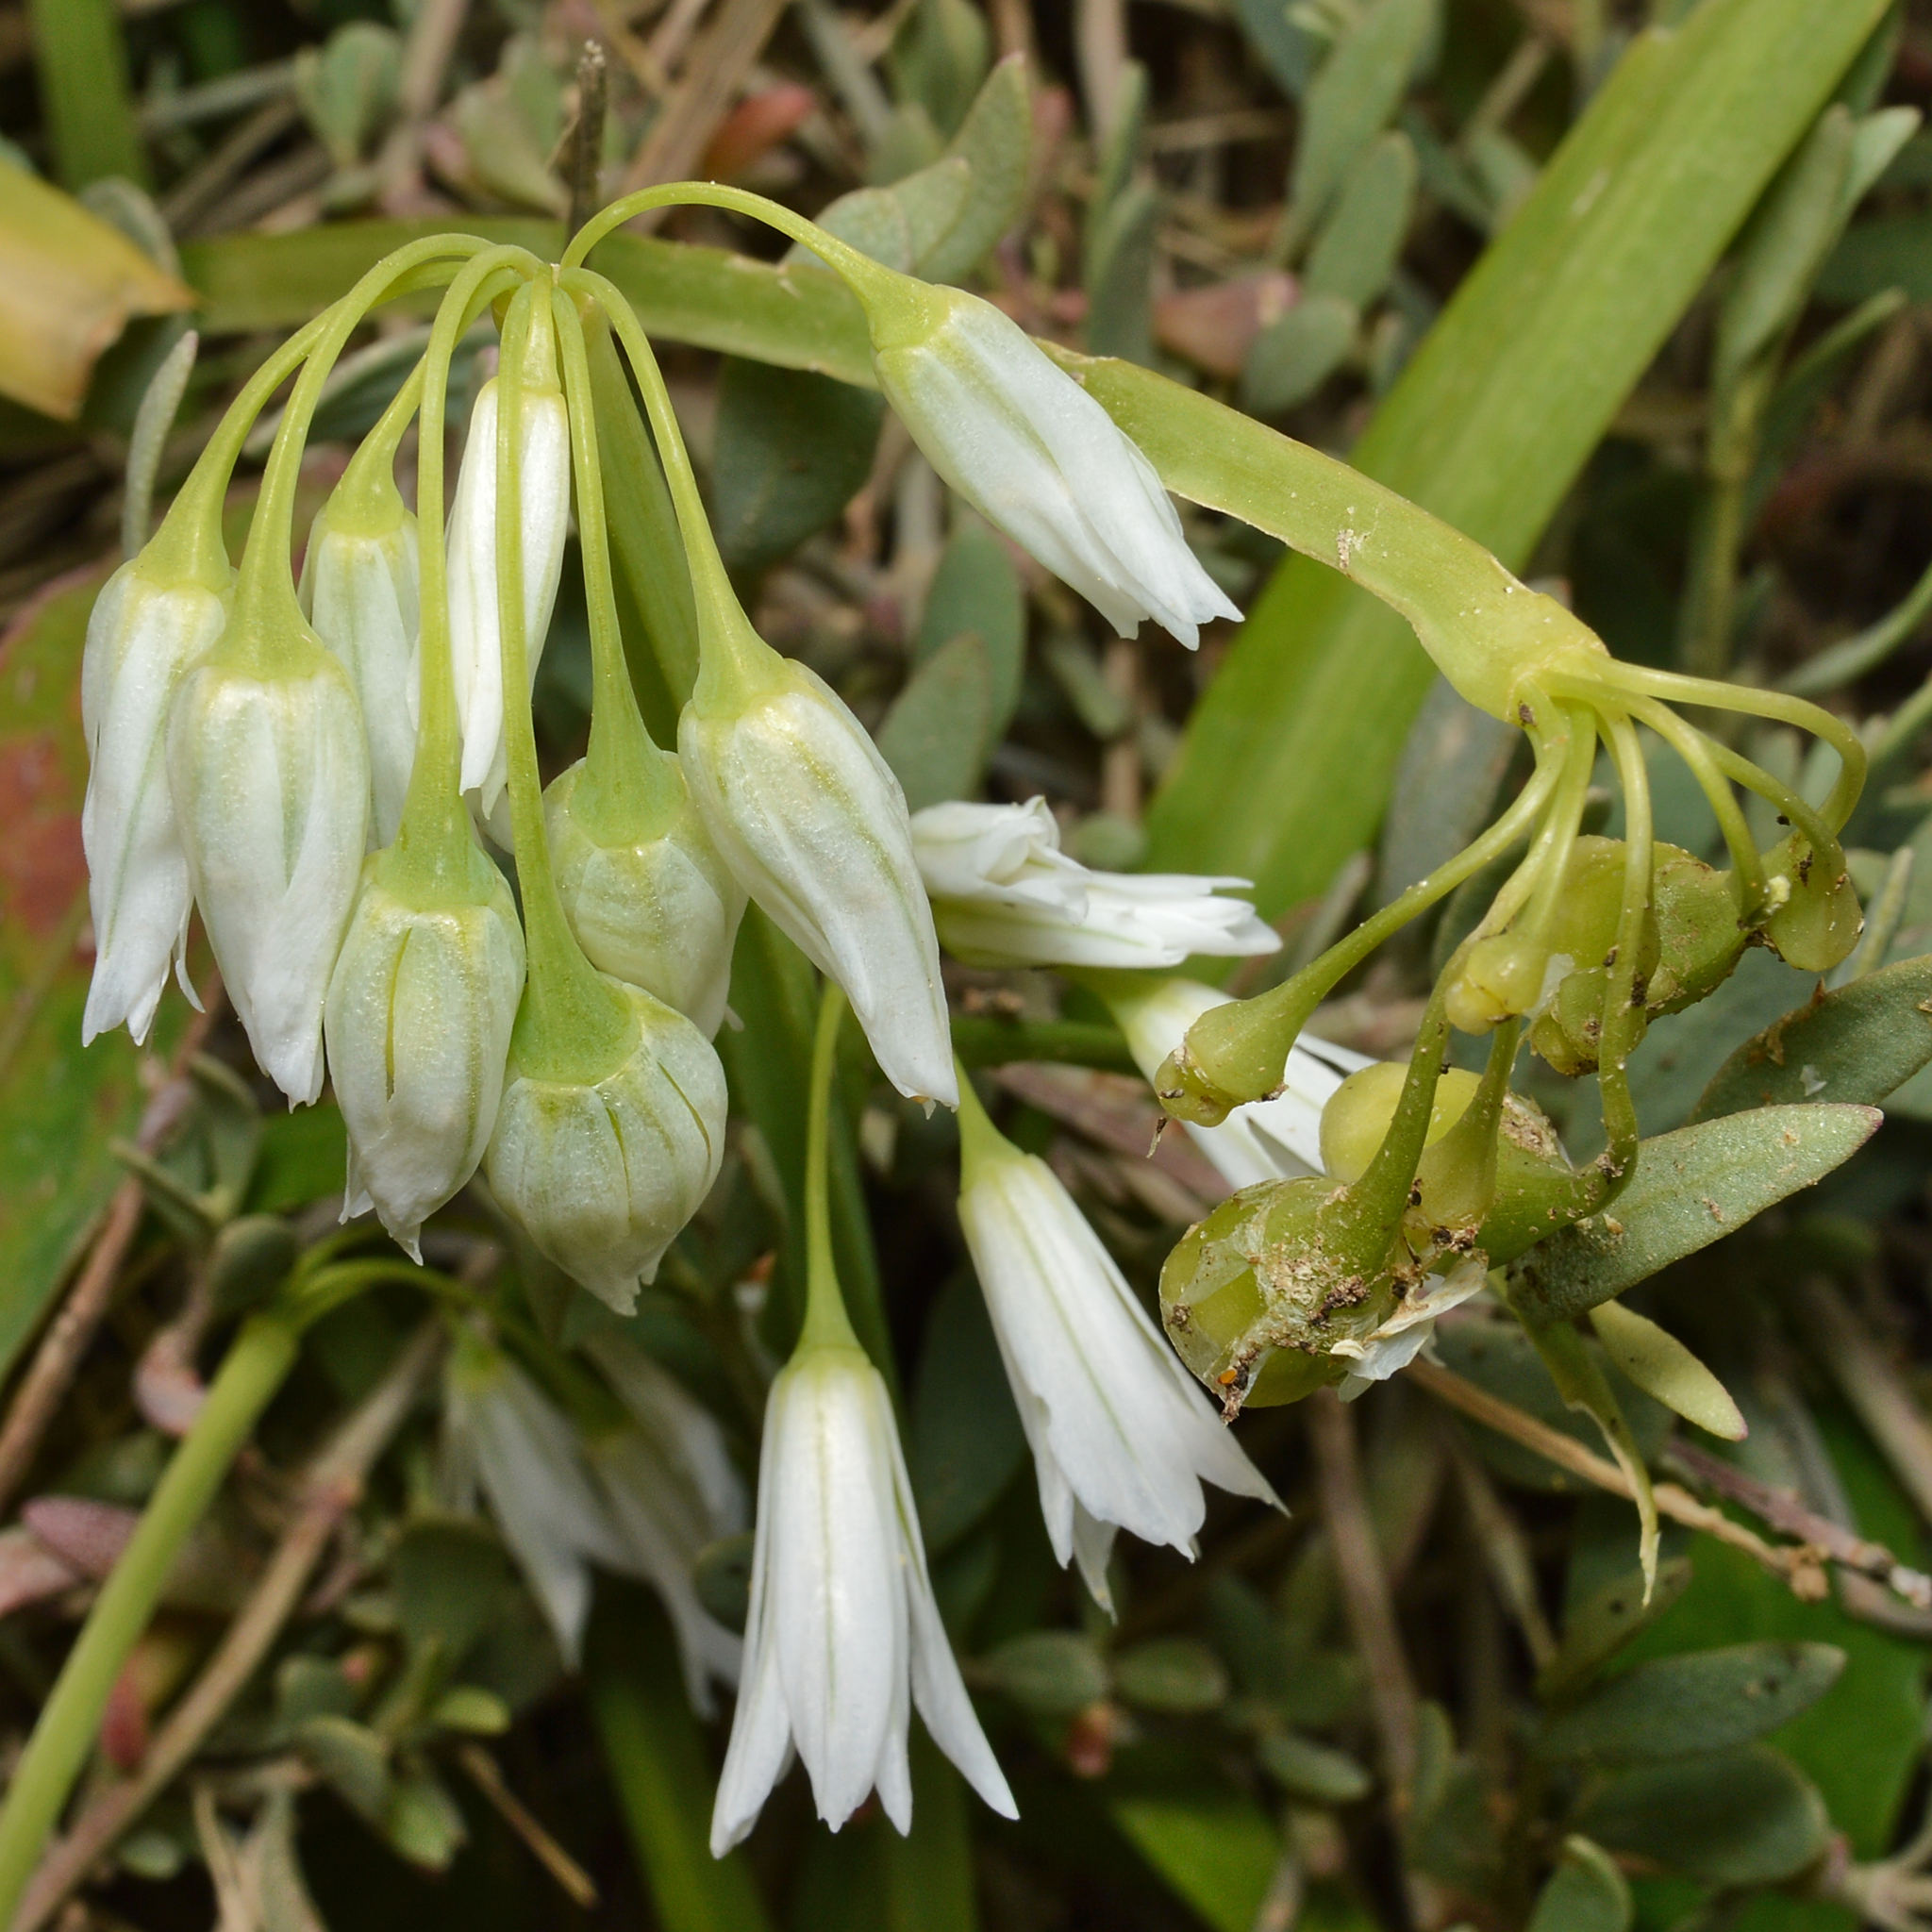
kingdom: Plantae
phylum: Tracheophyta
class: Liliopsida
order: Asparagales
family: Amaryllidaceae
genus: Allium
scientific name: Allium triquetrum
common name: Three-cornered garlic
